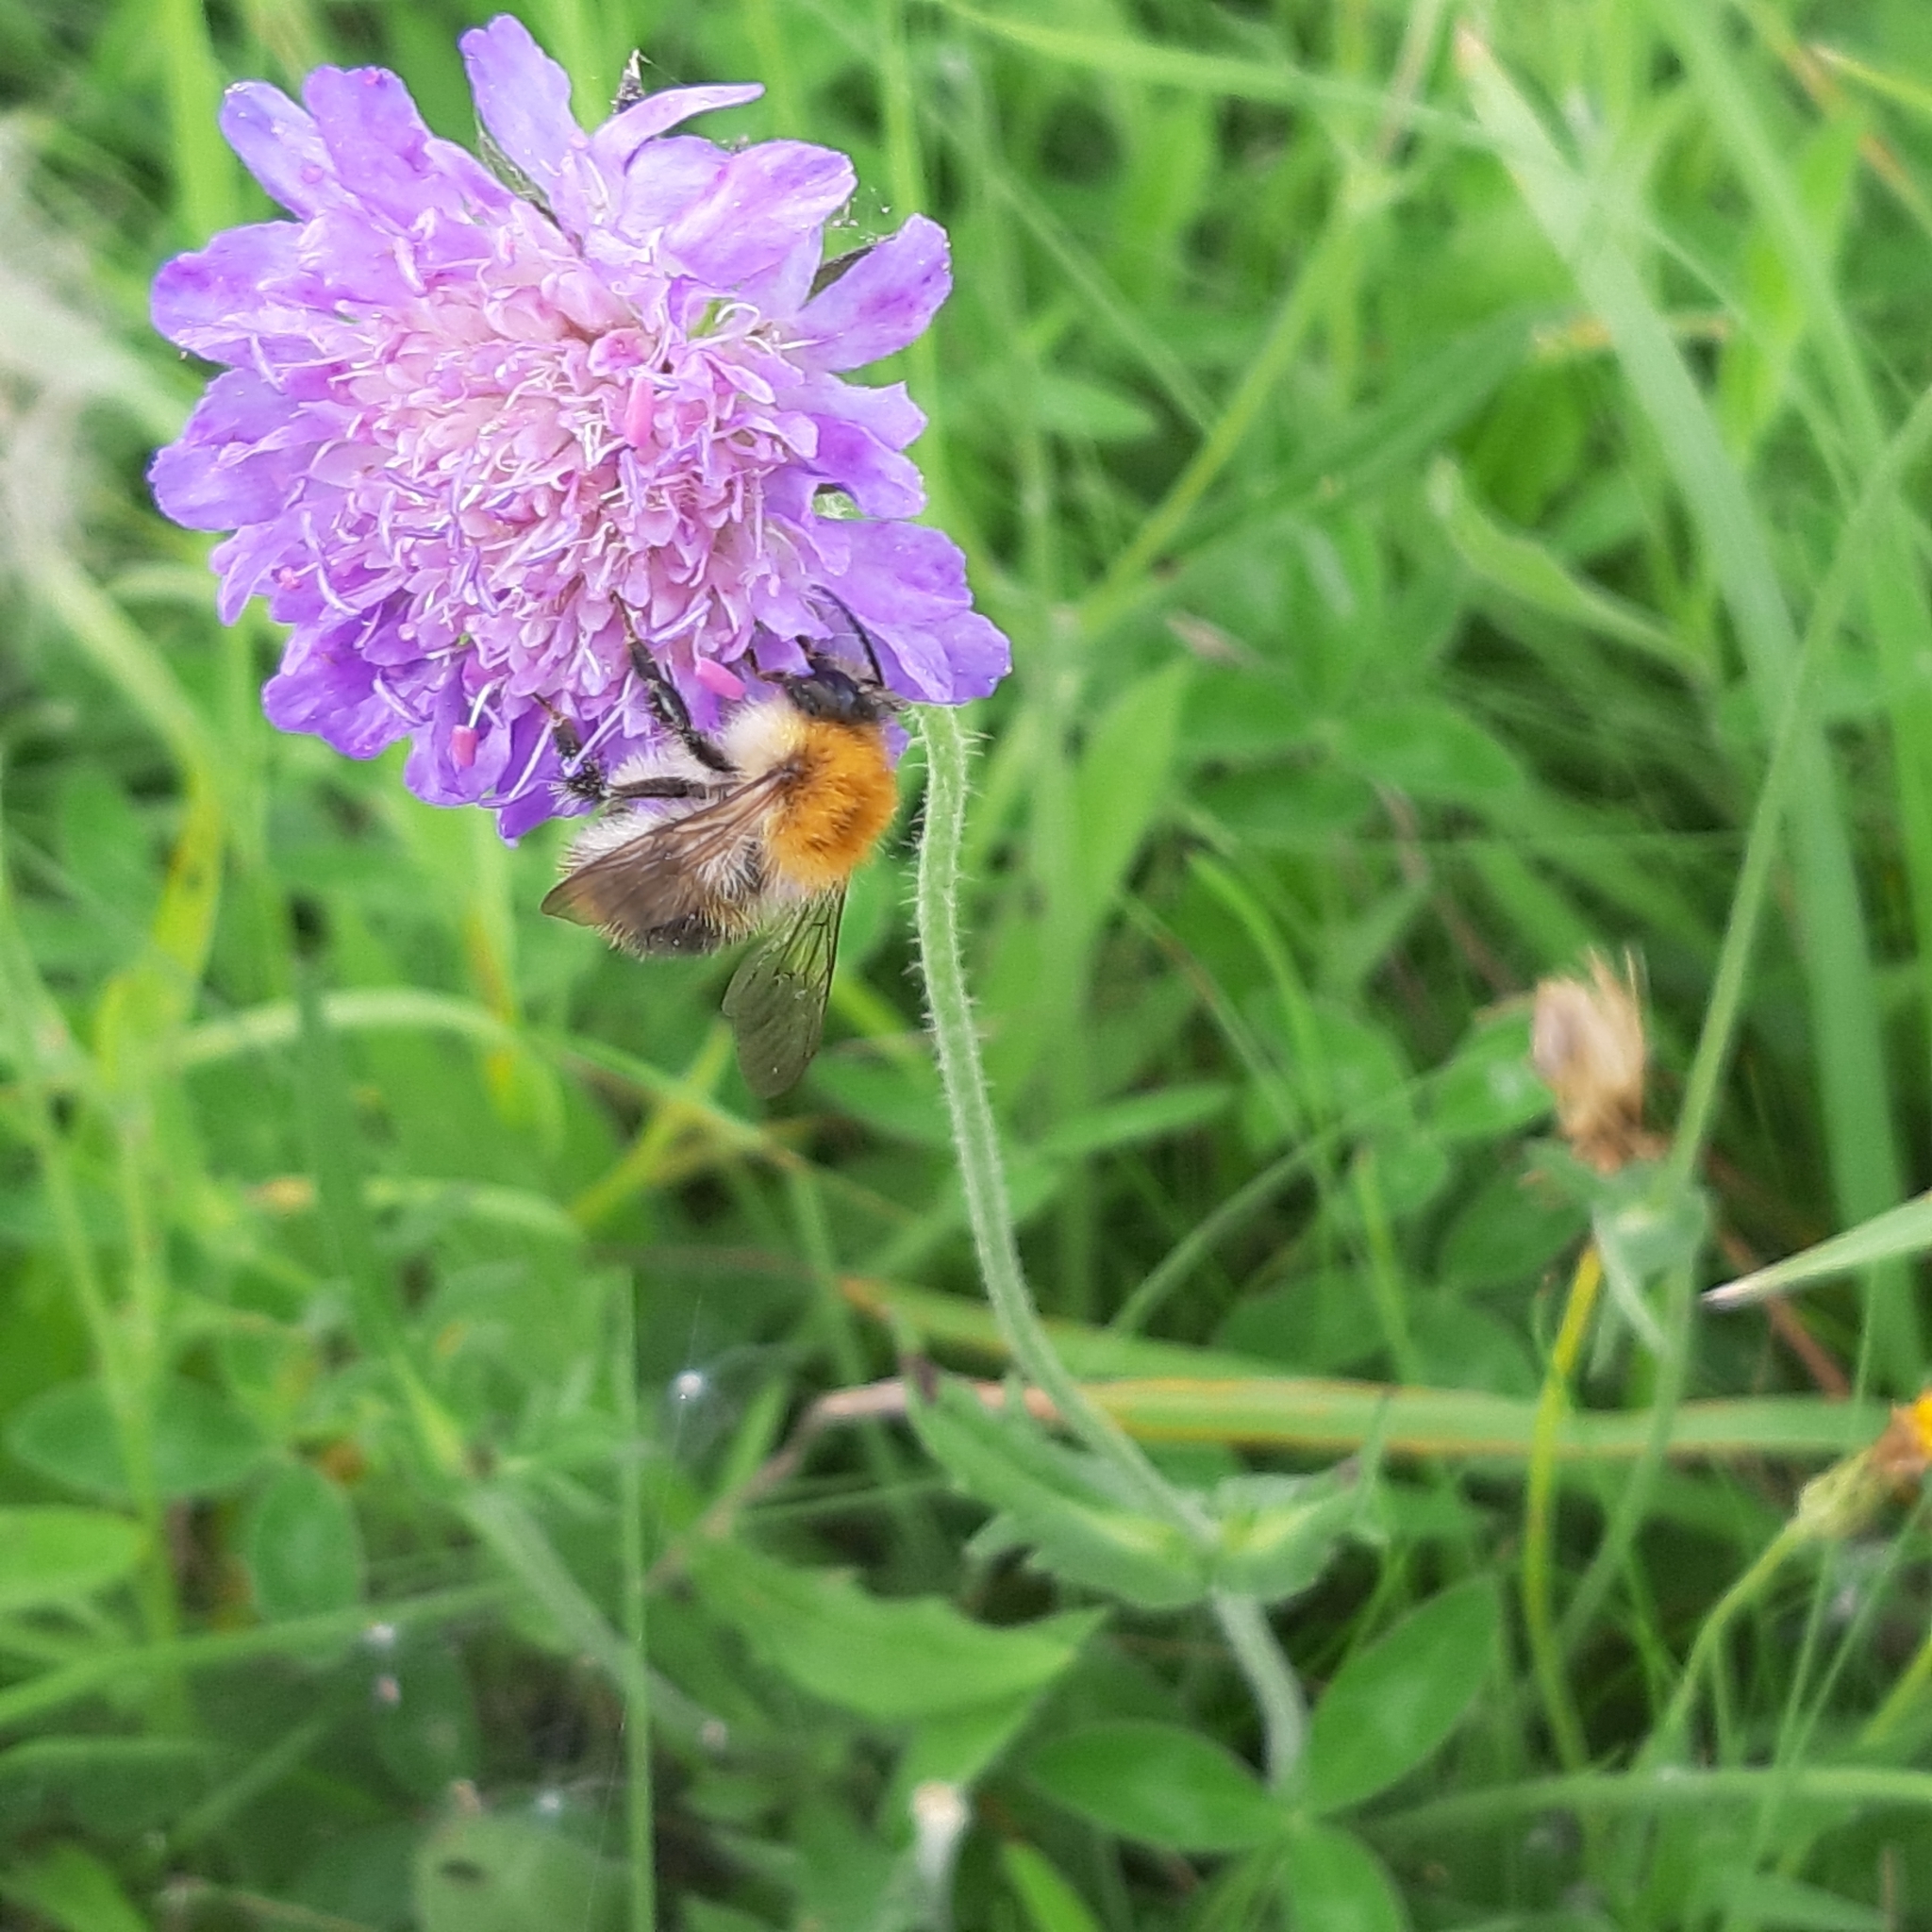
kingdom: Animalia
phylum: Arthropoda
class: Insecta
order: Hymenoptera
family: Apidae
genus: Bombus
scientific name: Bombus pascuorum
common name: Common carder bee
